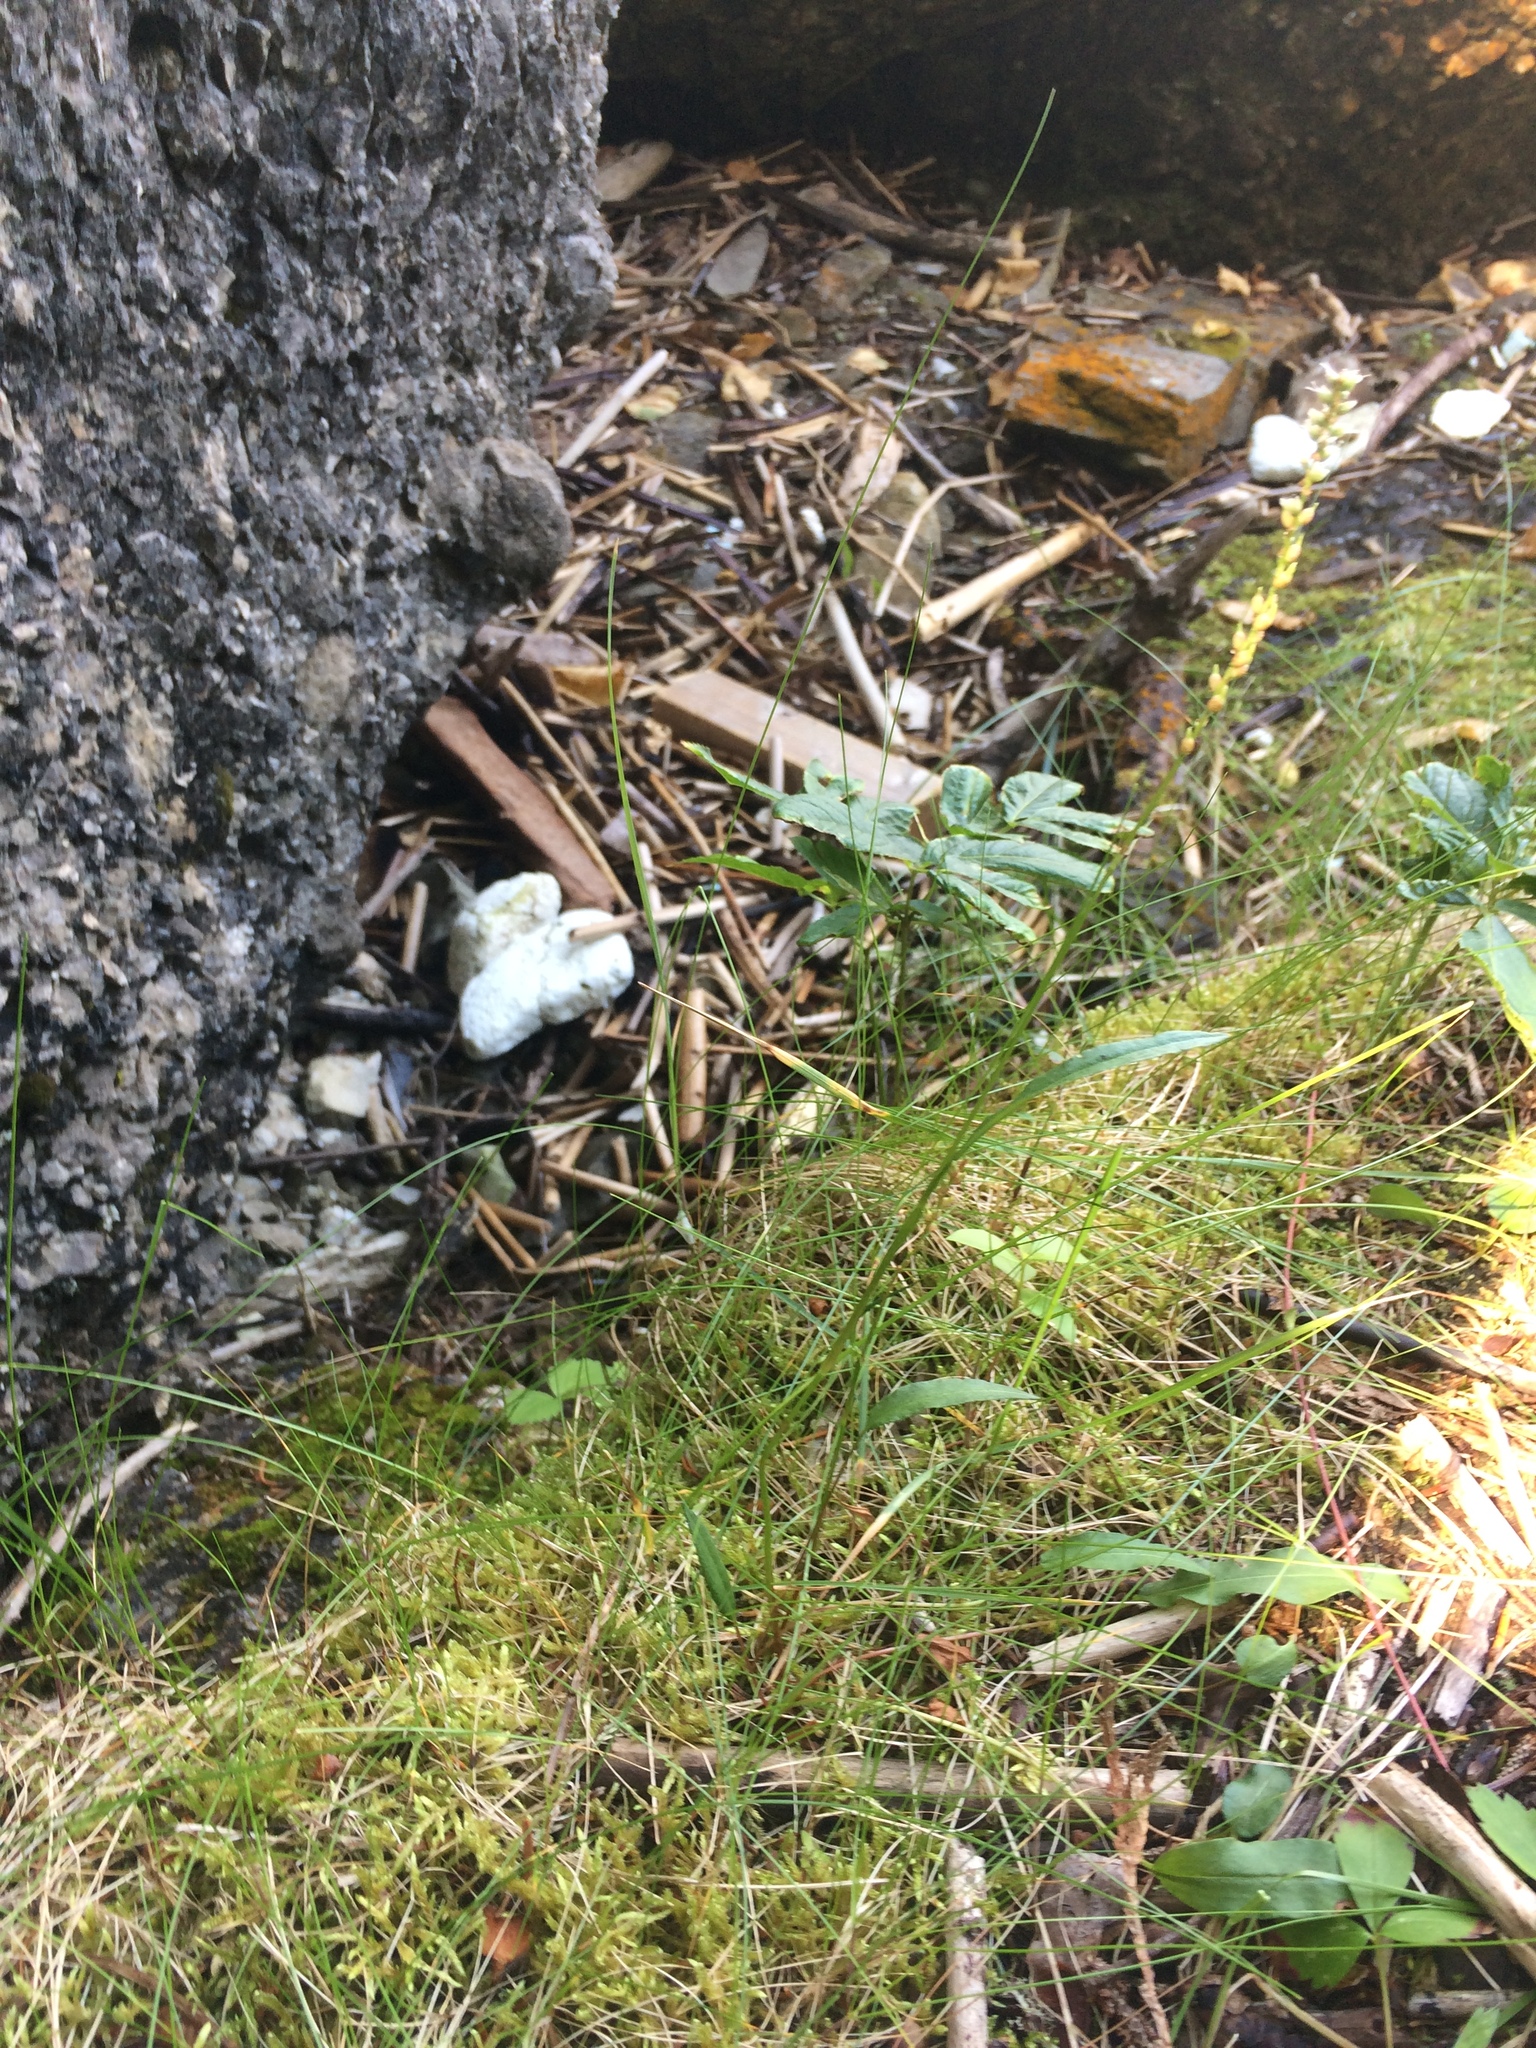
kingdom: Plantae
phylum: Tracheophyta
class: Magnoliopsida
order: Caryophyllales
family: Polygonaceae
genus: Bistorta
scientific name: Bistorta vivipara
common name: Alpine bistort
